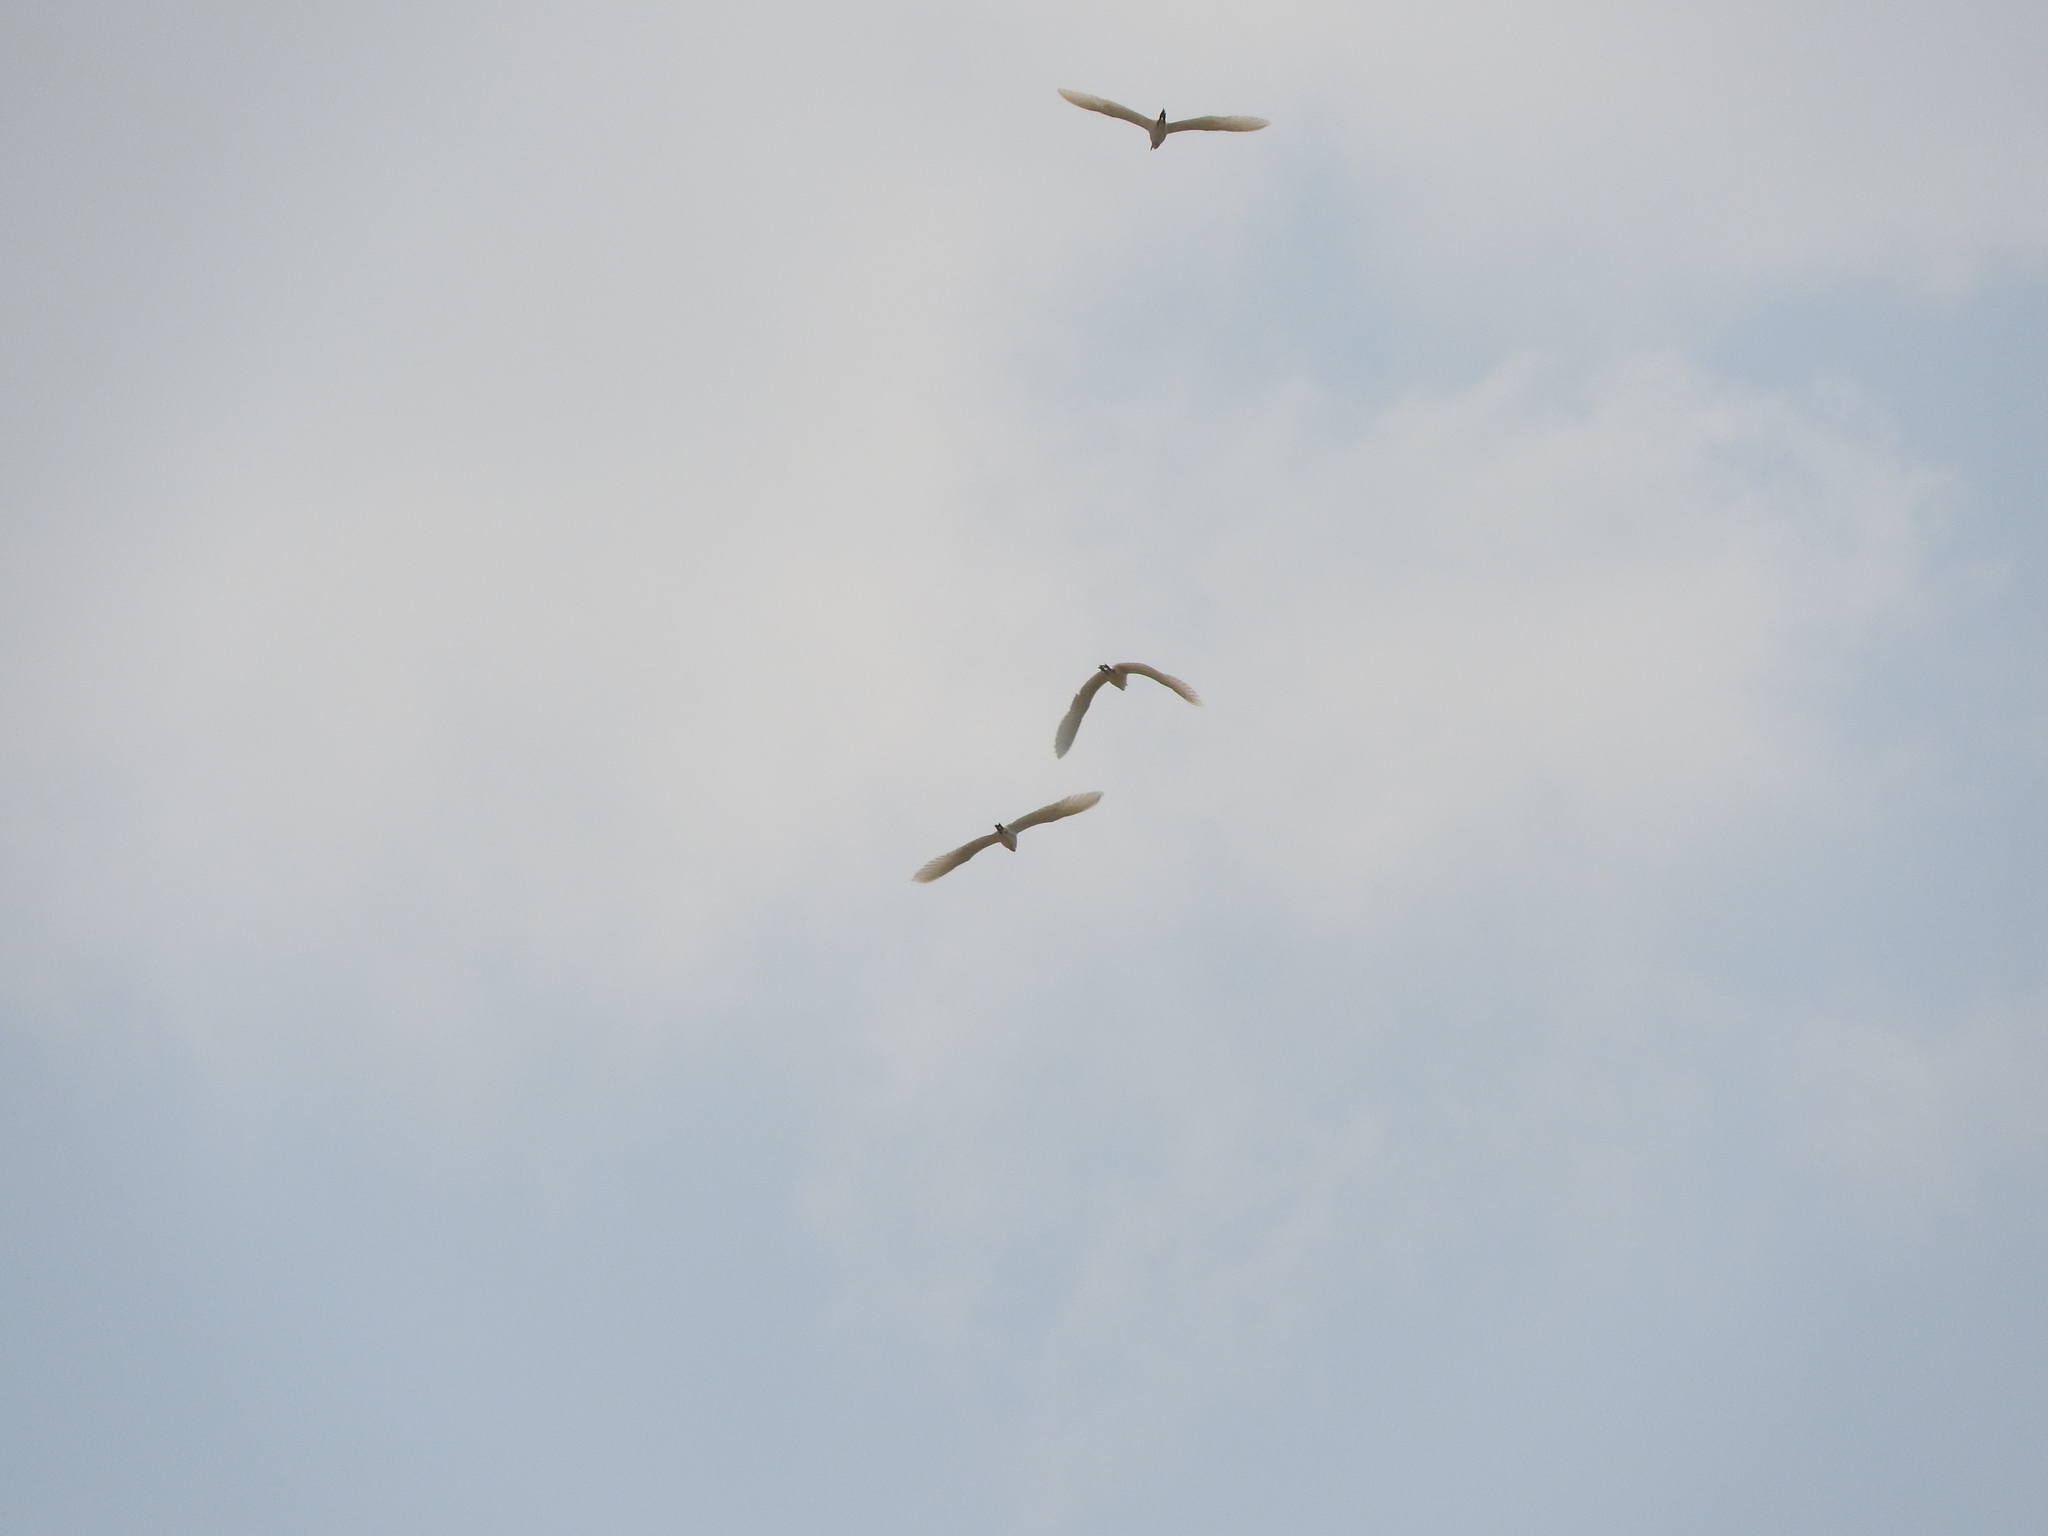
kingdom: Animalia
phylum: Chordata
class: Aves
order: Pelecaniformes
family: Ardeidae
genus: Bubulcus
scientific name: Bubulcus ibis
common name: Cattle egret
